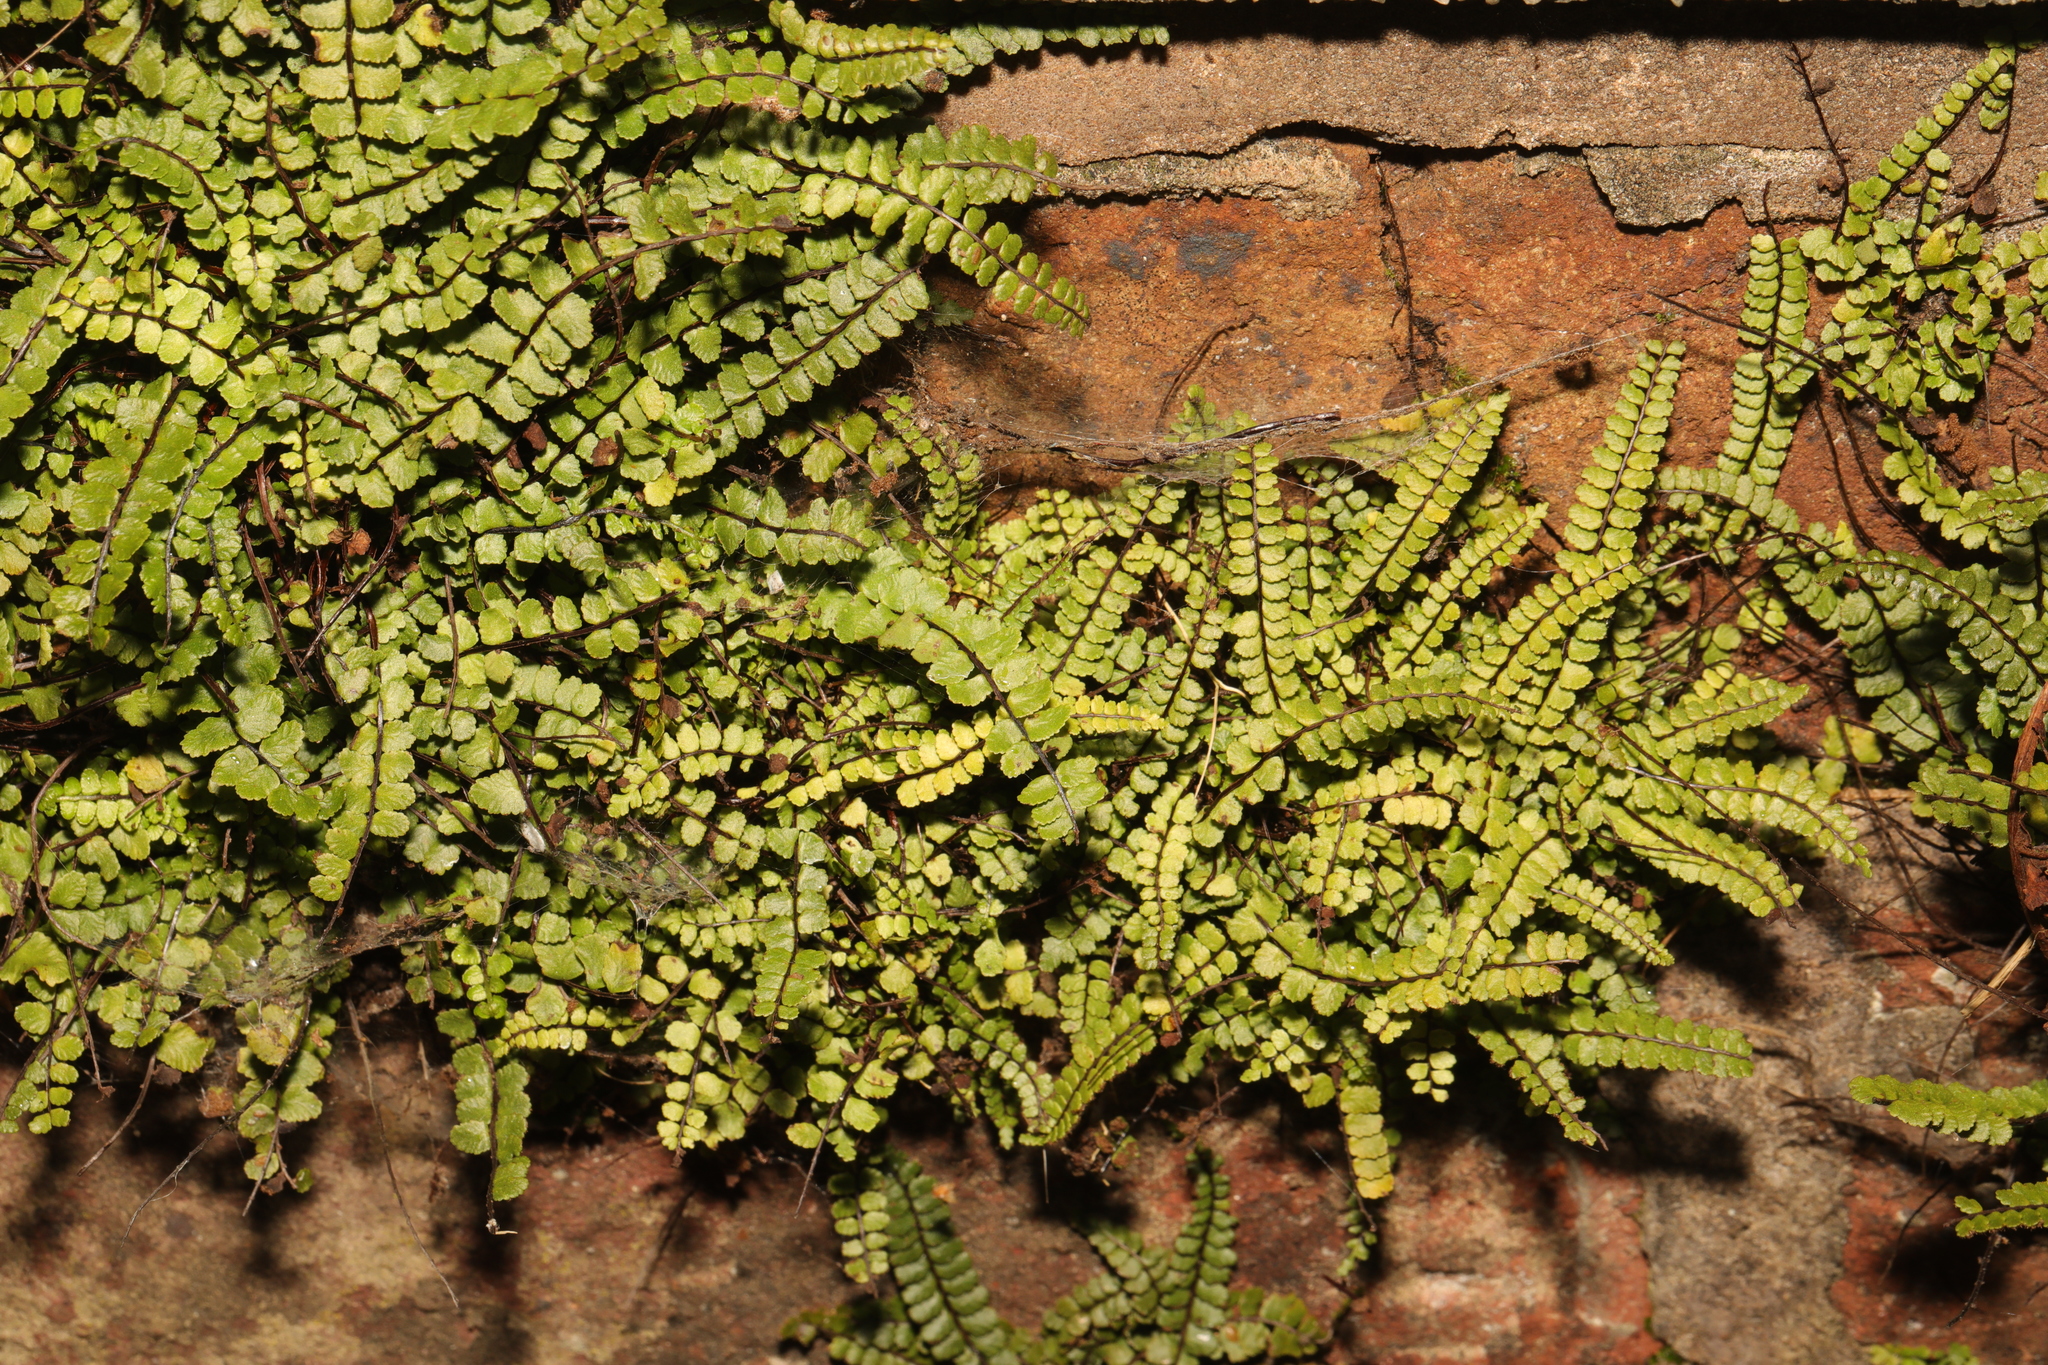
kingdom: Plantae
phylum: Tracheophyta
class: Polypodiopsida
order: Polypodiales
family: Aspleniaceae
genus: Asplenium
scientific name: Asplenium trichomanes
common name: Maidenhair spleenwort
